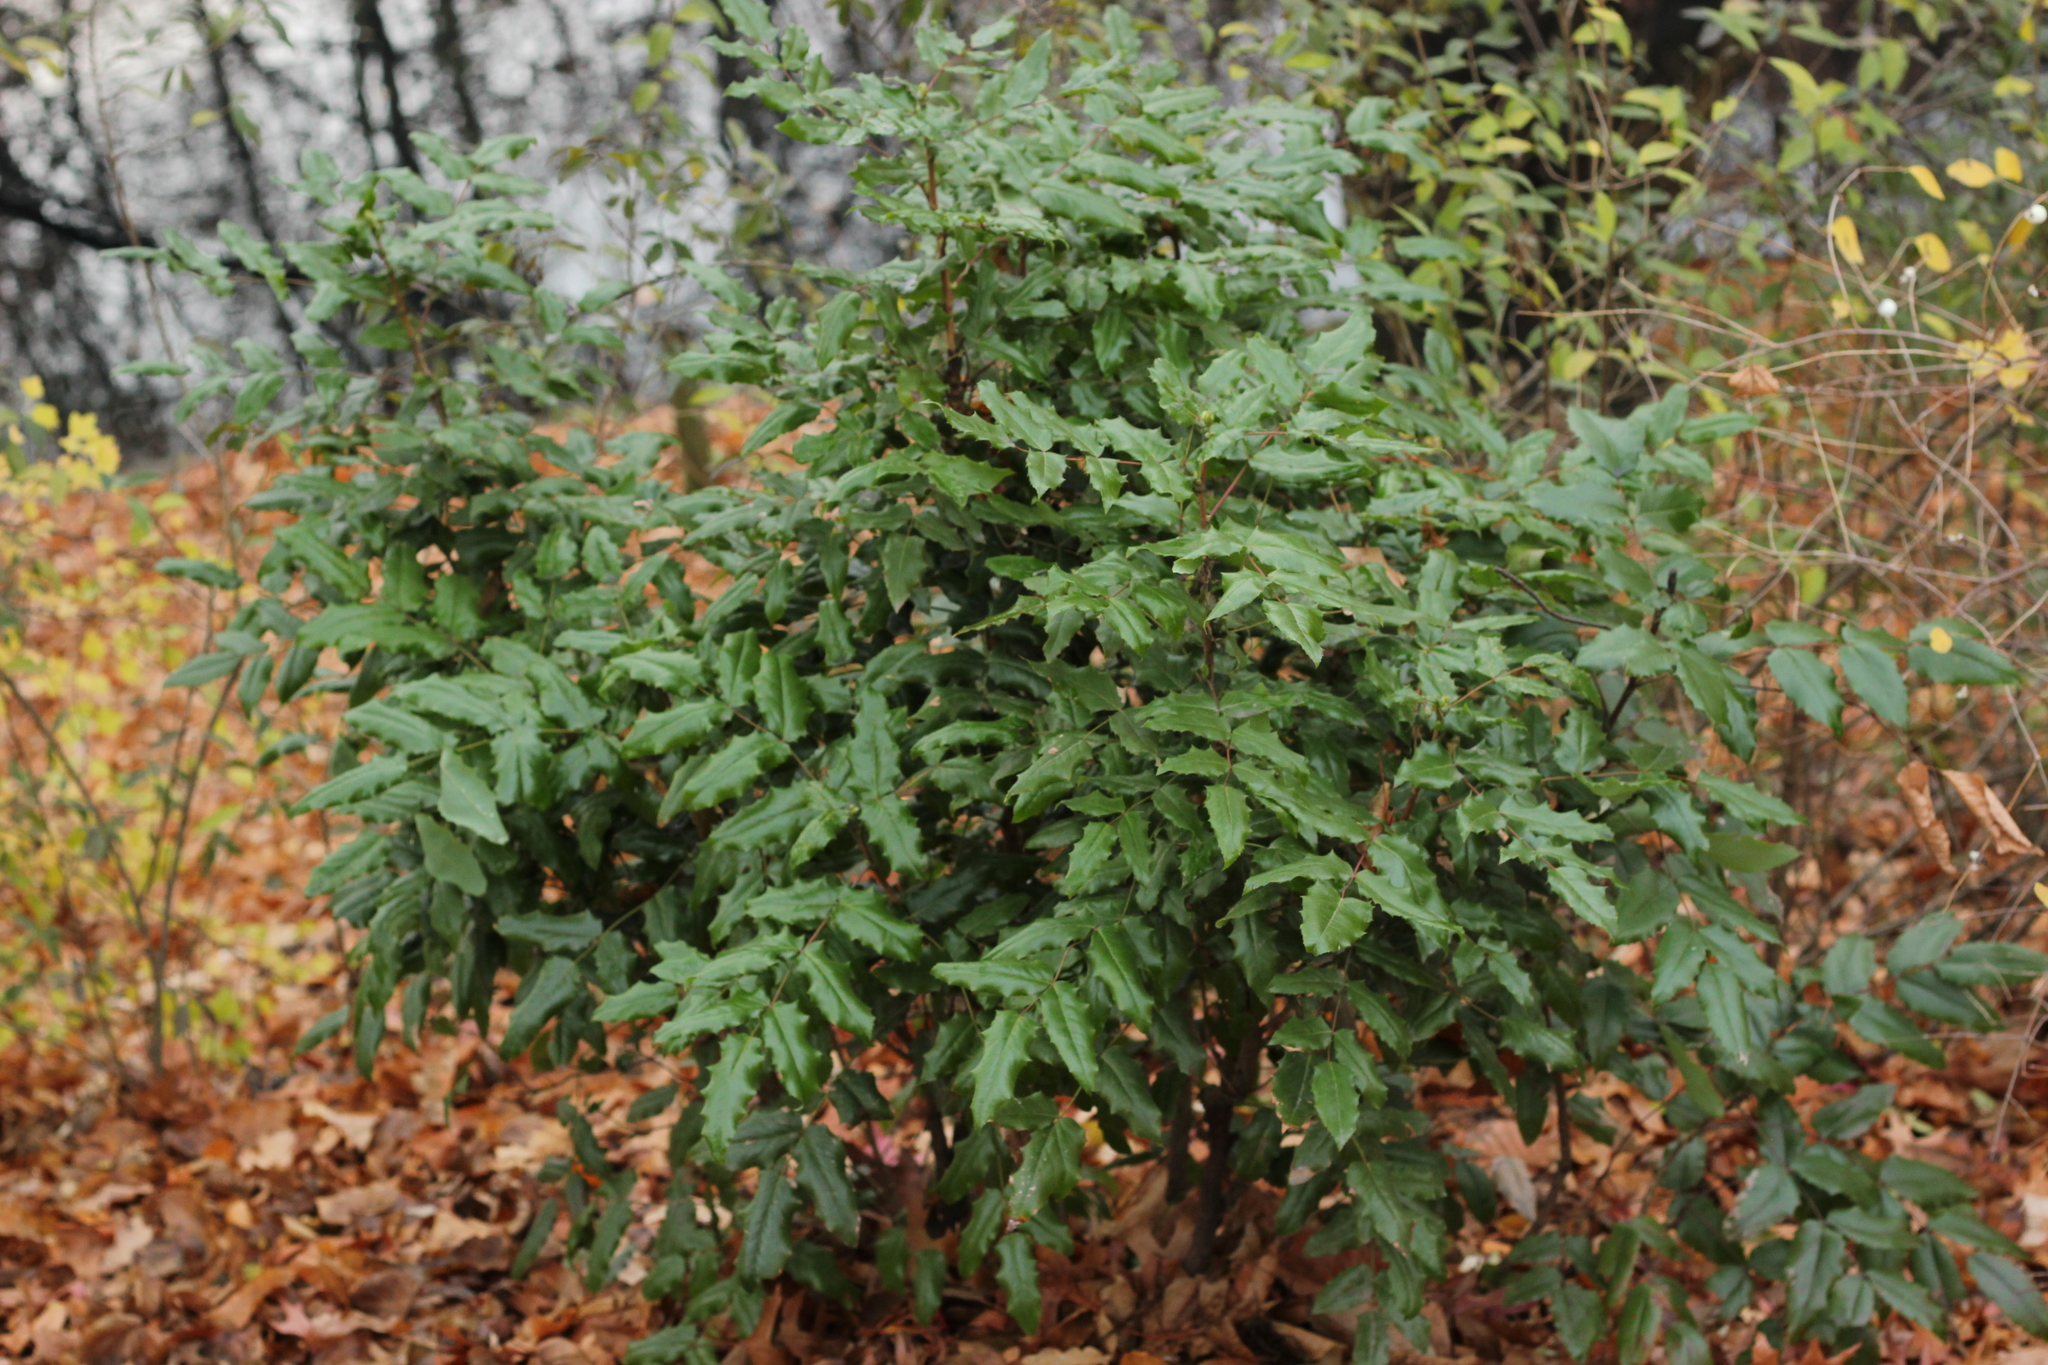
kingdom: Plantae
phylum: Tracheophyta
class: Magnoliopsida
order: Ranunculales
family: Berberidaceae
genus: Mahonia
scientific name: Mahonia aquifolium
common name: Oregon-grape
